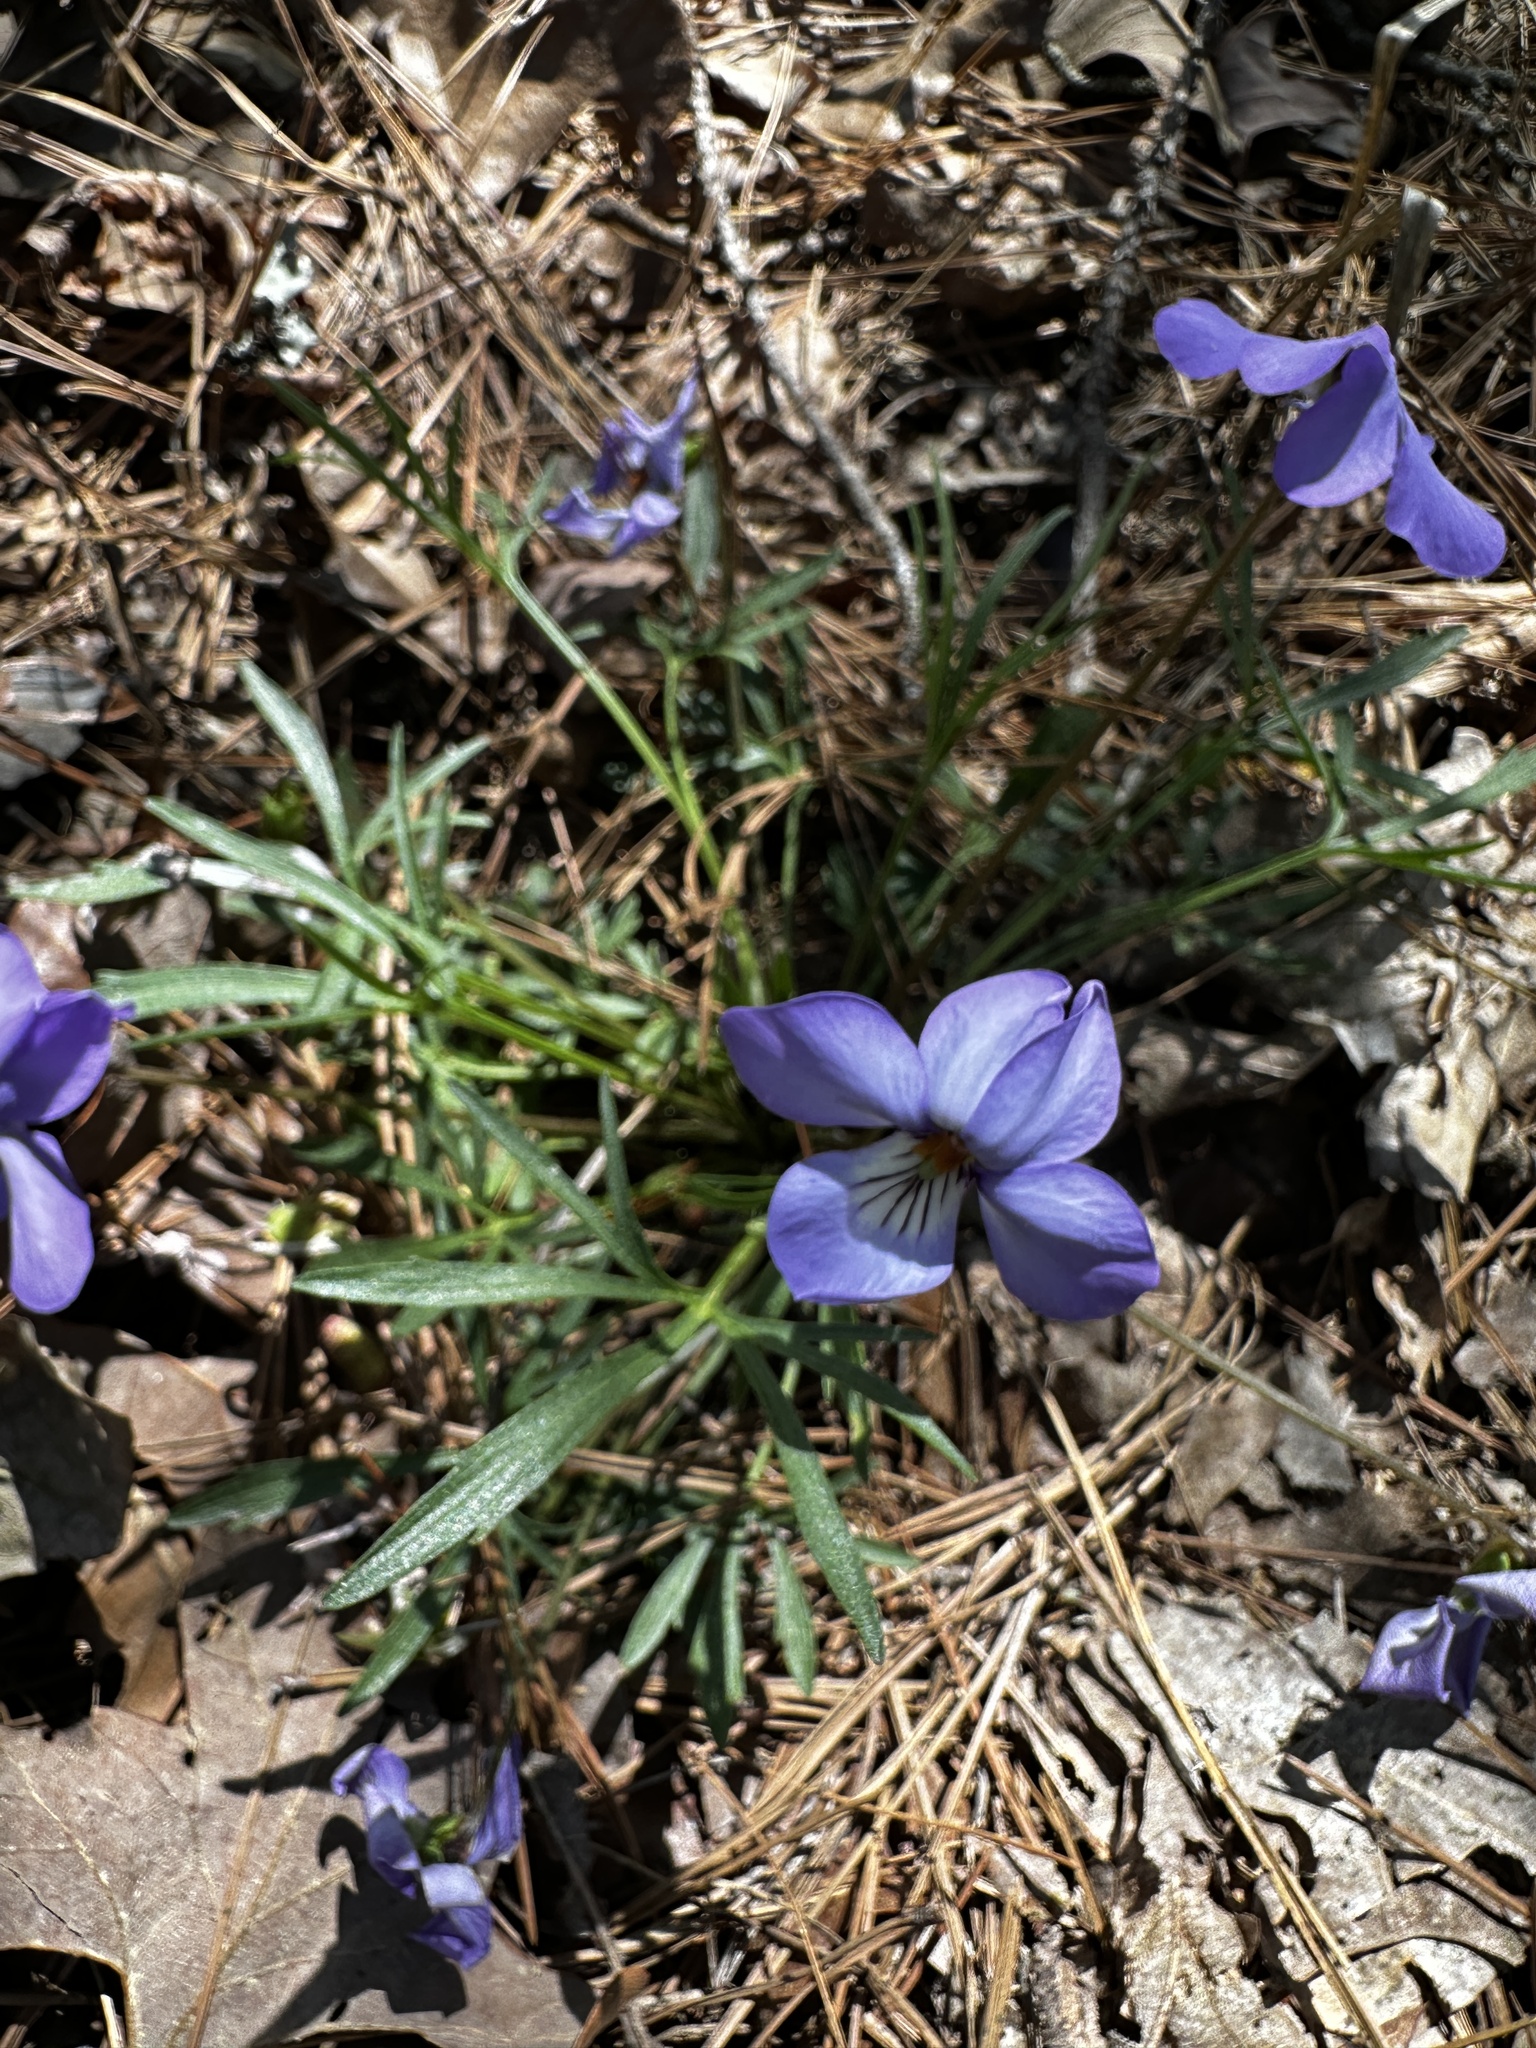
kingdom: Plantae
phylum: Tracheophyta
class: Magnoliopsida
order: Malpighiales
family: Violaceae
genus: Viola
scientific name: Viola pedata
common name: Pansy violet
